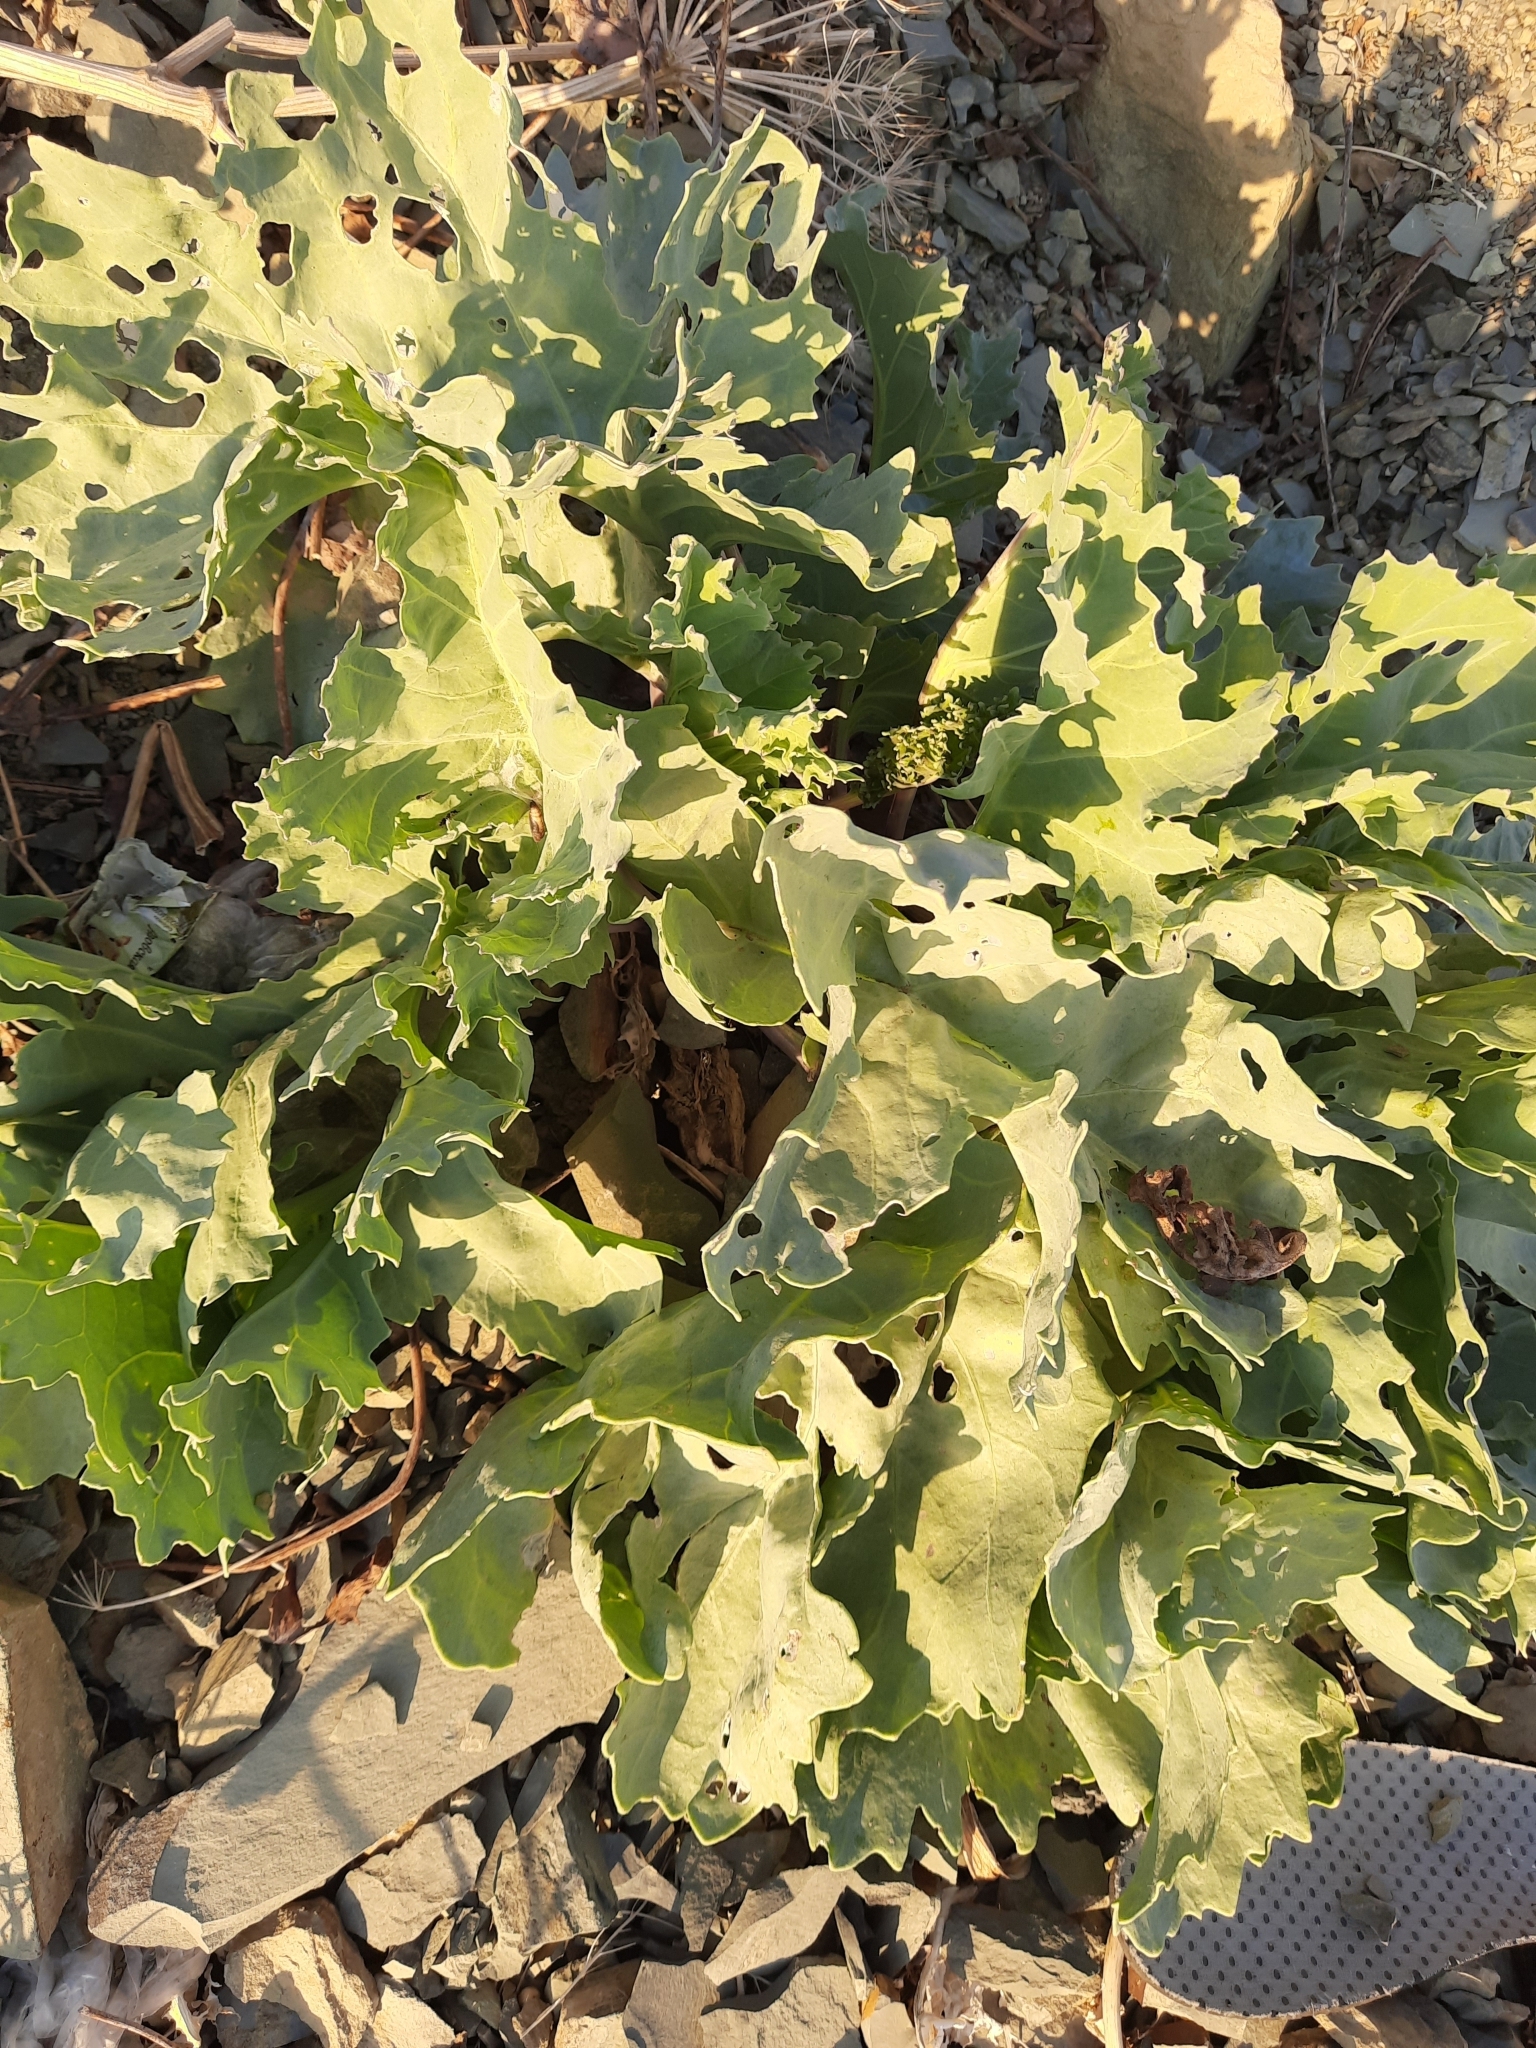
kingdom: Plantae
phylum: Tracheophyta
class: Magnoliopsida
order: Brassicales
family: Brassicaceae
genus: Crambe
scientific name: Crambe maritima
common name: Sea-kale
